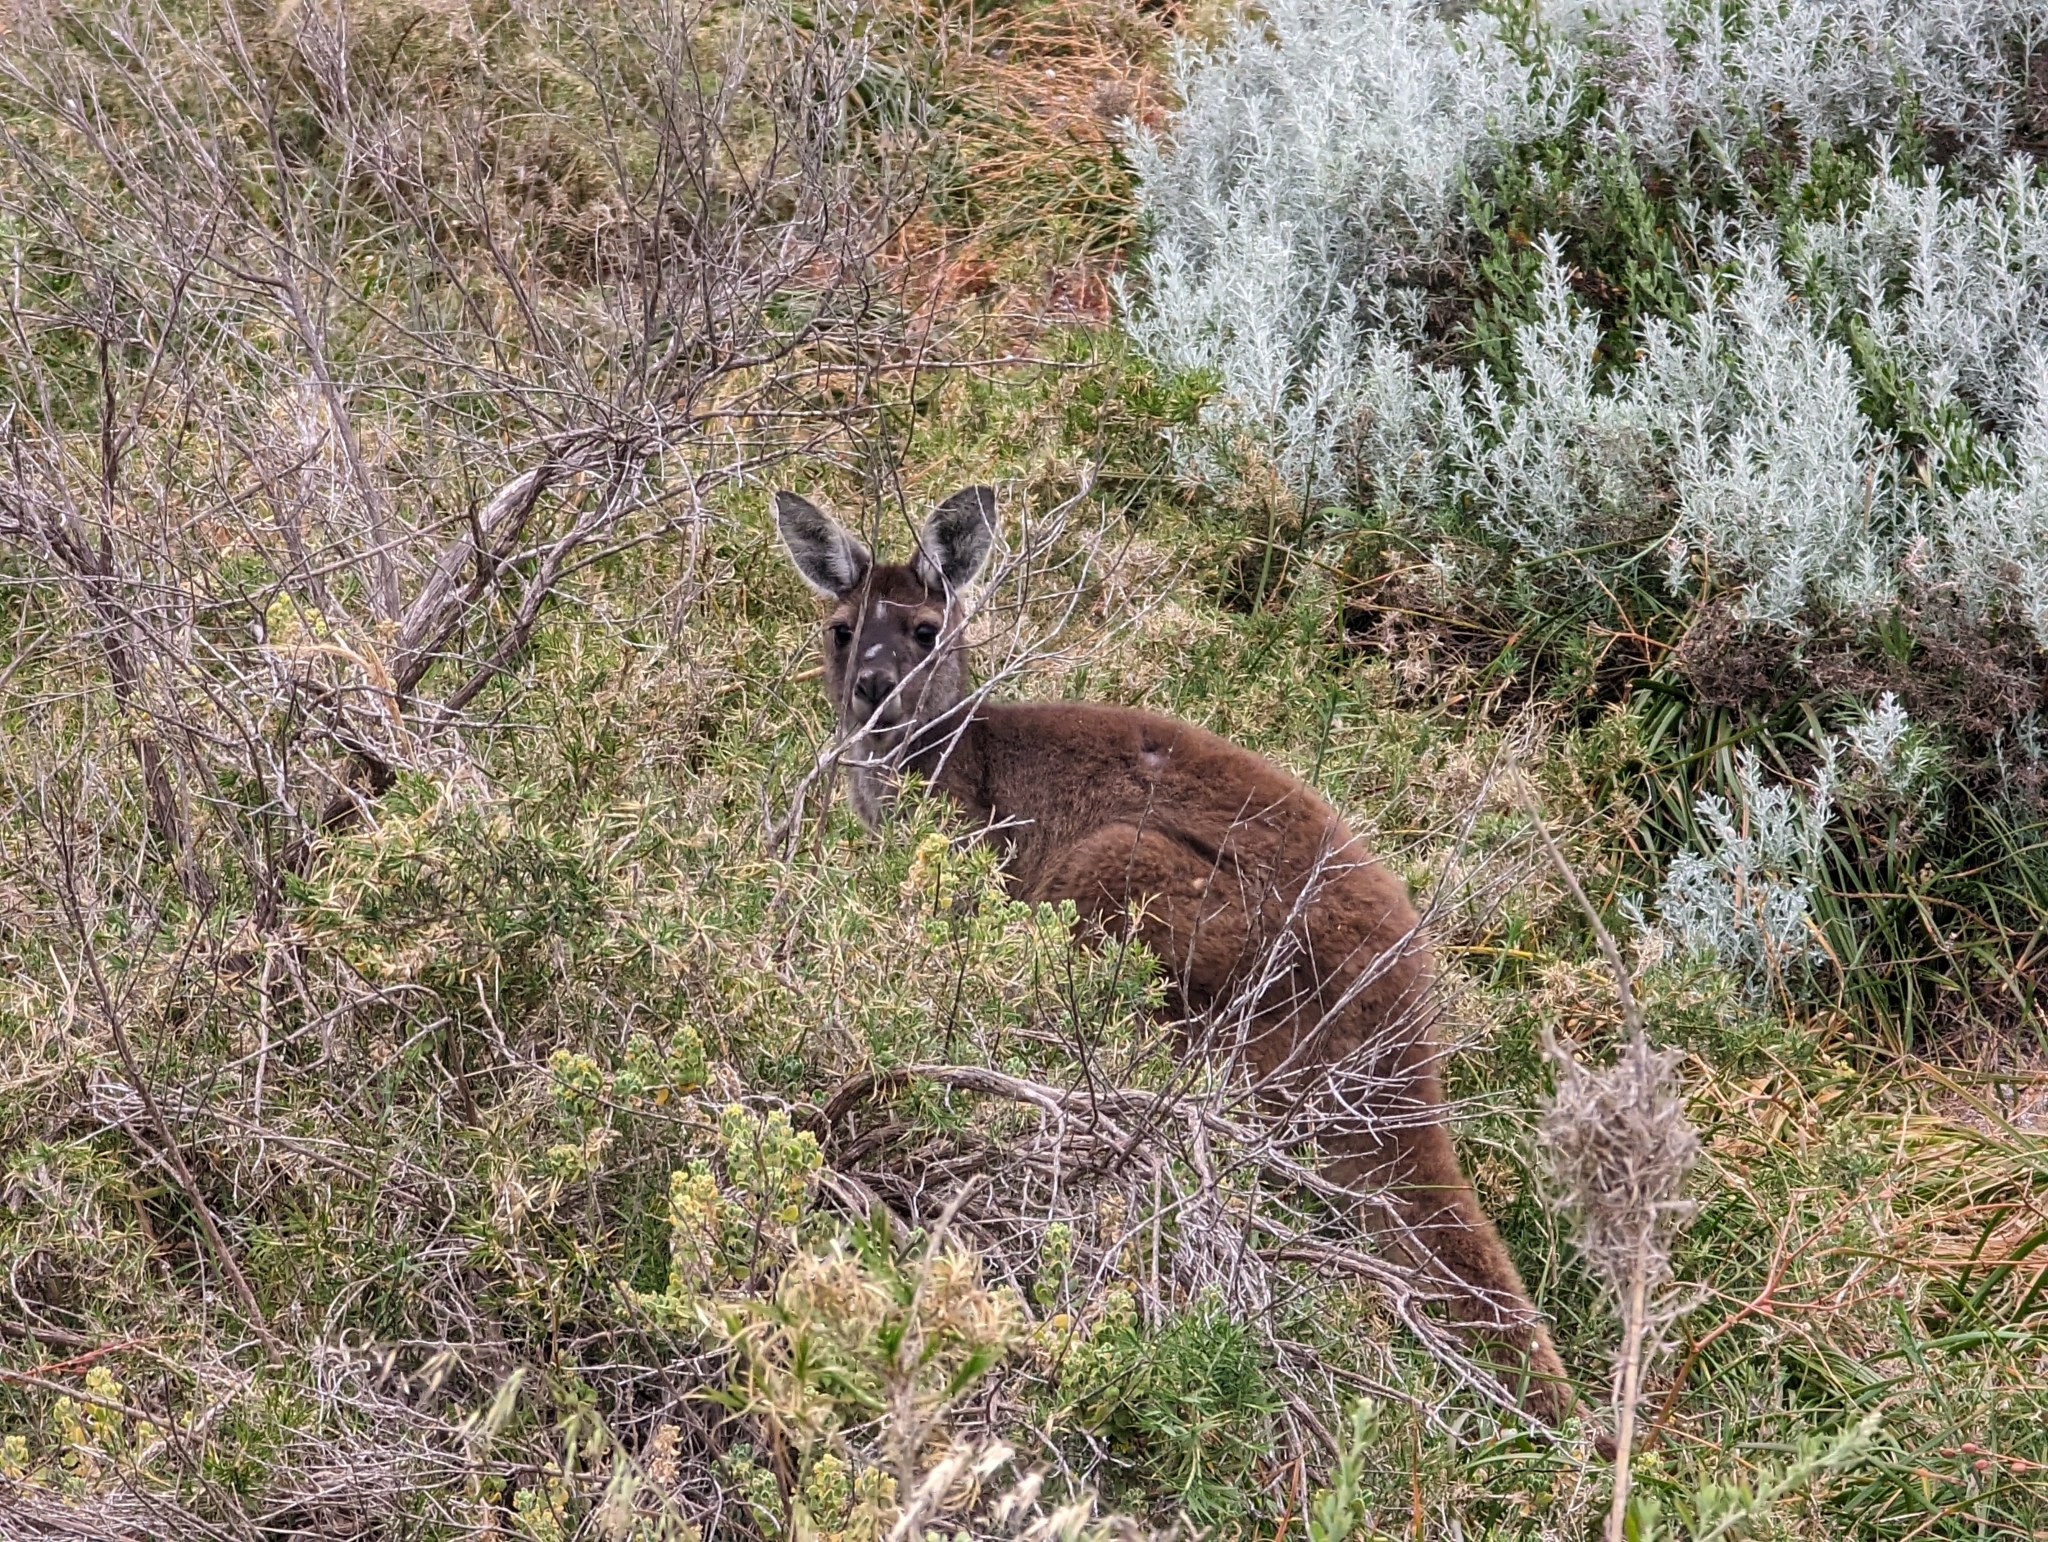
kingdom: Animalia
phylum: Chordata
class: Mammalia
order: Diprotodontia
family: Macropodidae
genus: Macropus
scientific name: Macropus fuliginosus
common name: Western grey kangaroo
